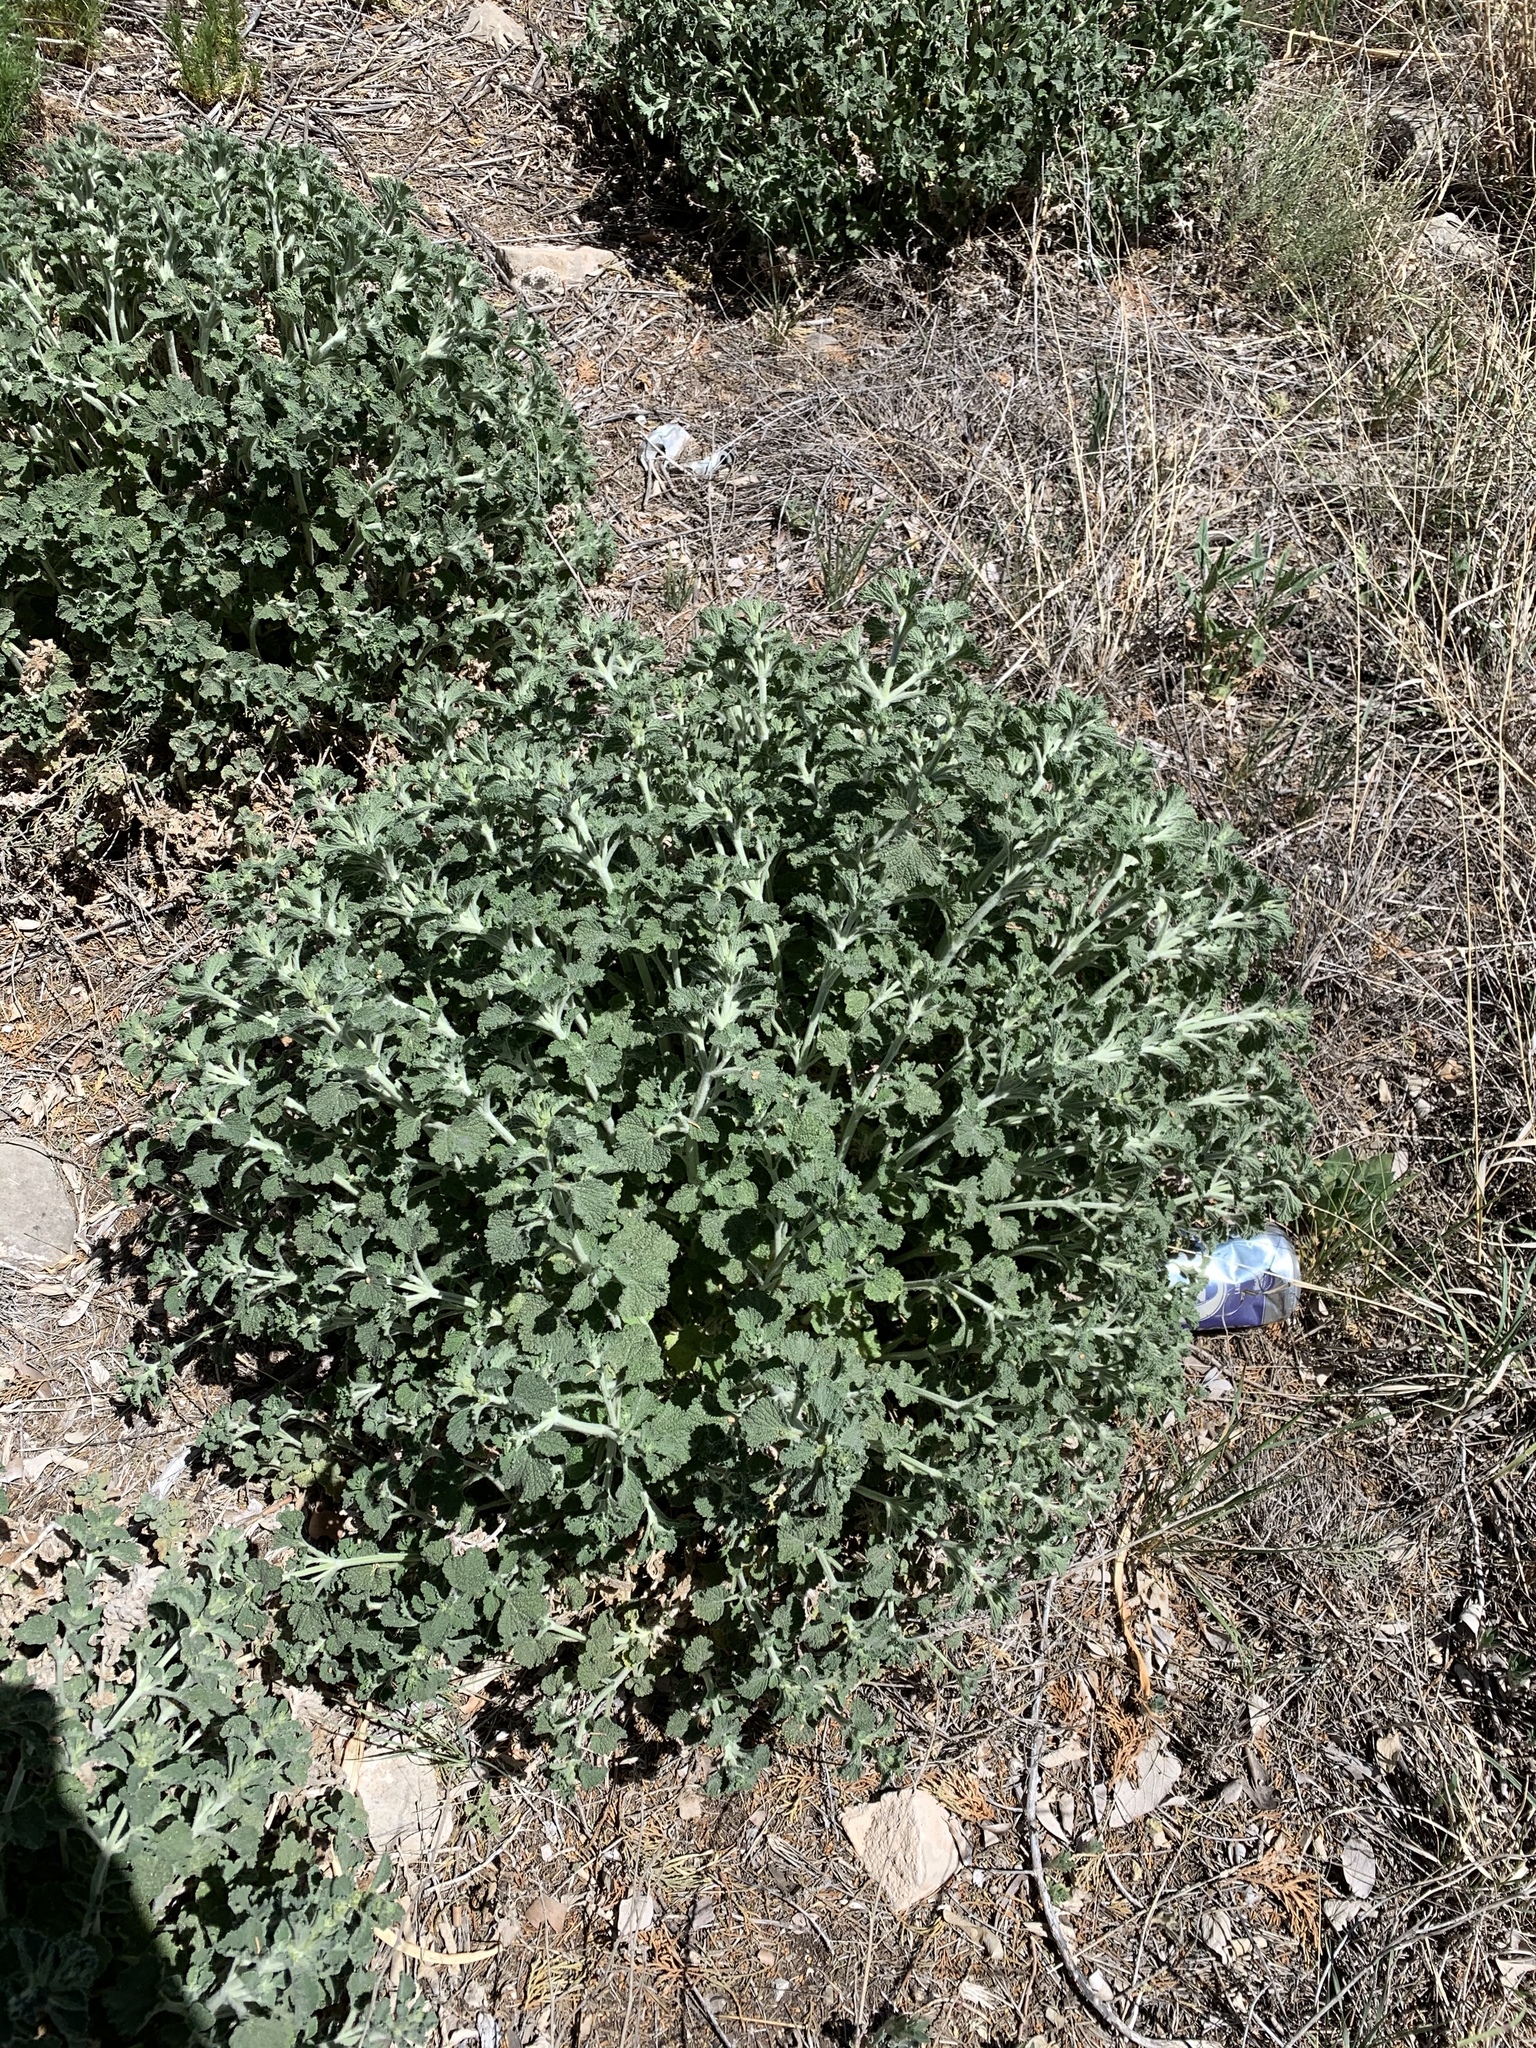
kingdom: Plantae
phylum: Tracheophyta
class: Magnoliopsida
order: Lamiales
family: Lamiaceae
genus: Marrubium
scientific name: Marrubium vulgare
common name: Horehound
